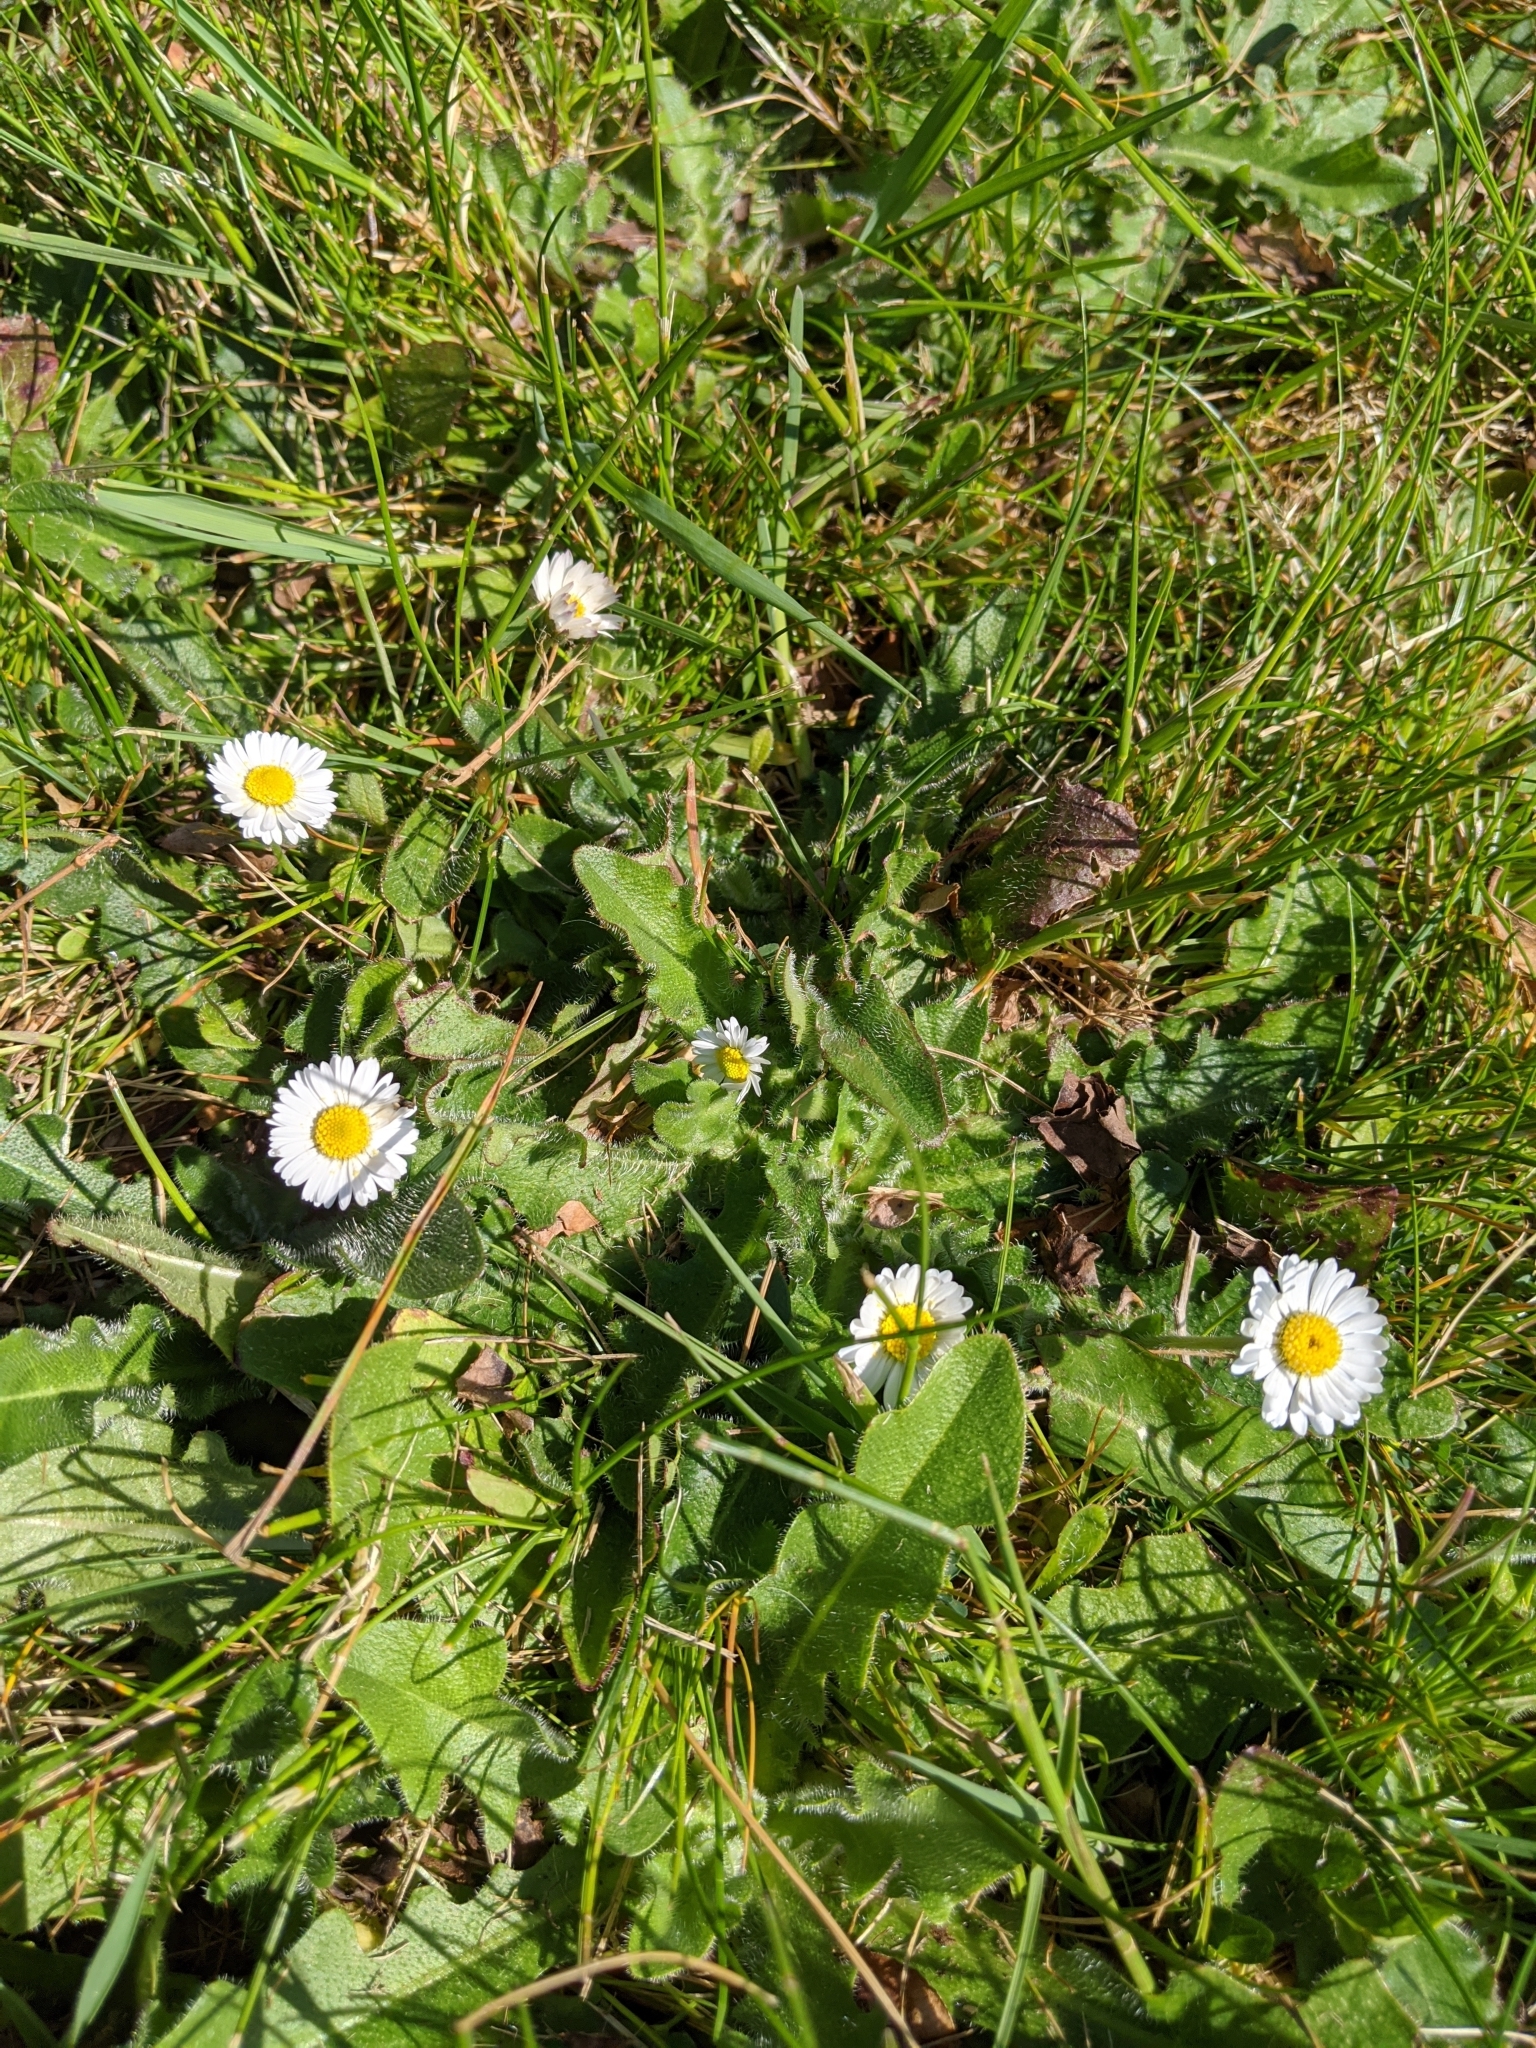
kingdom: Plantae
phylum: Tracheophyta
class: Magnoliopsida
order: Asterales
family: Asteraceae
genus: Bellis
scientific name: Bellis perennis
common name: Lawndaisy
